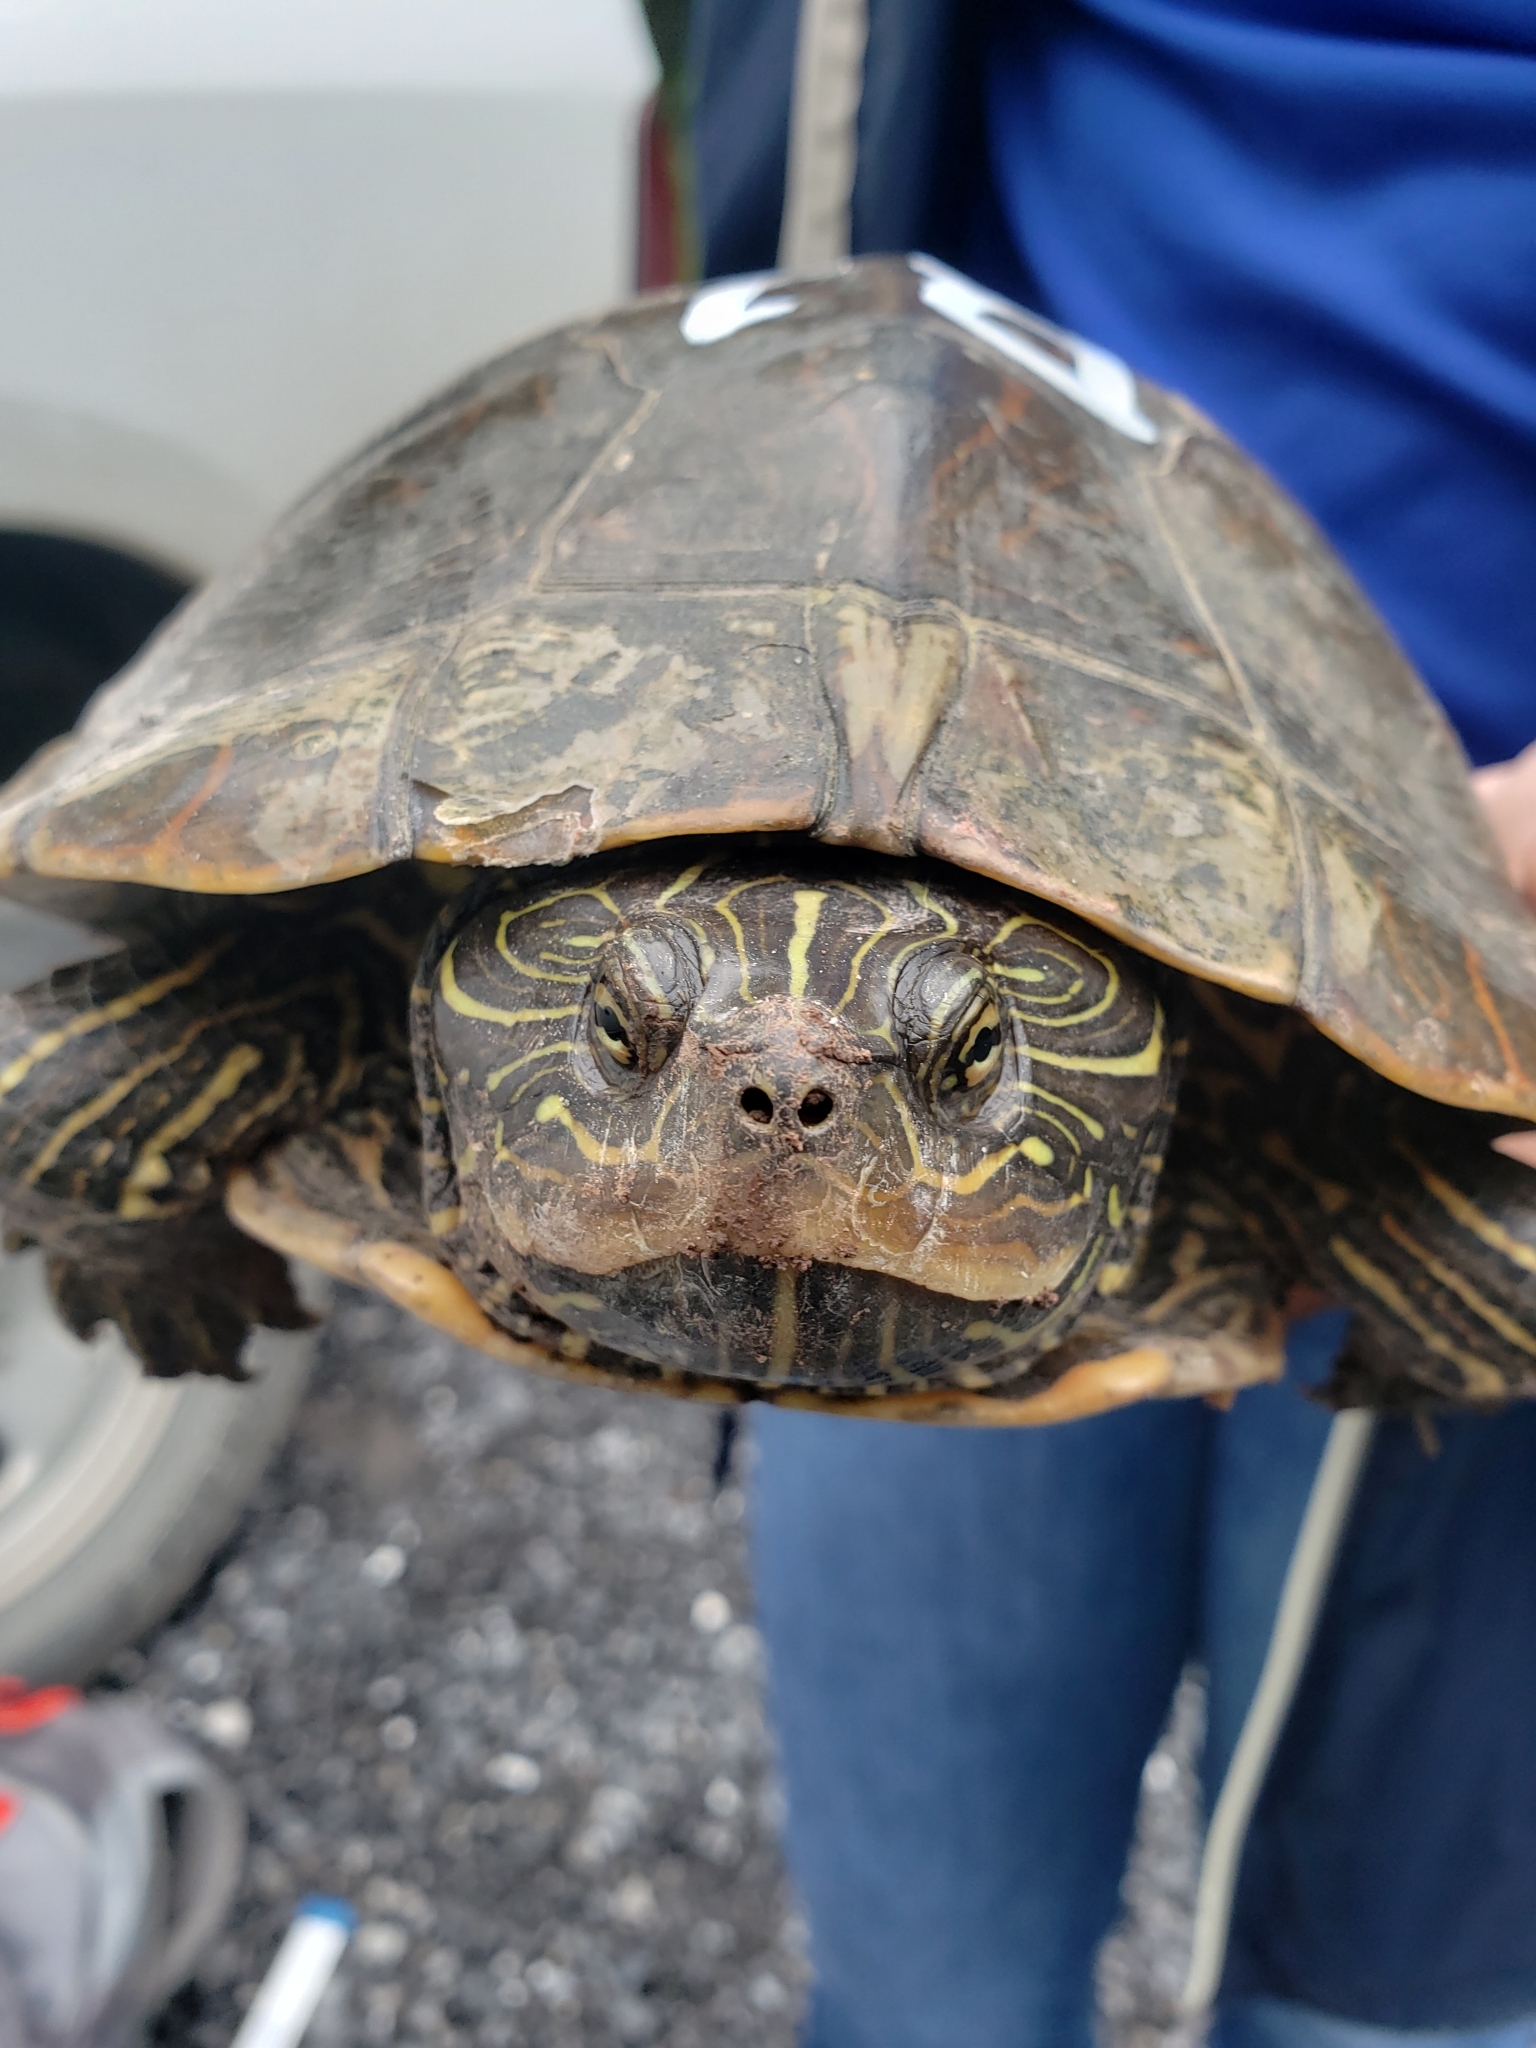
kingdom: Animalia
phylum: Chordata
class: Testudines
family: Emydidae
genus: Graptemys
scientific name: Graptemys geographica
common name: Common map turtle
